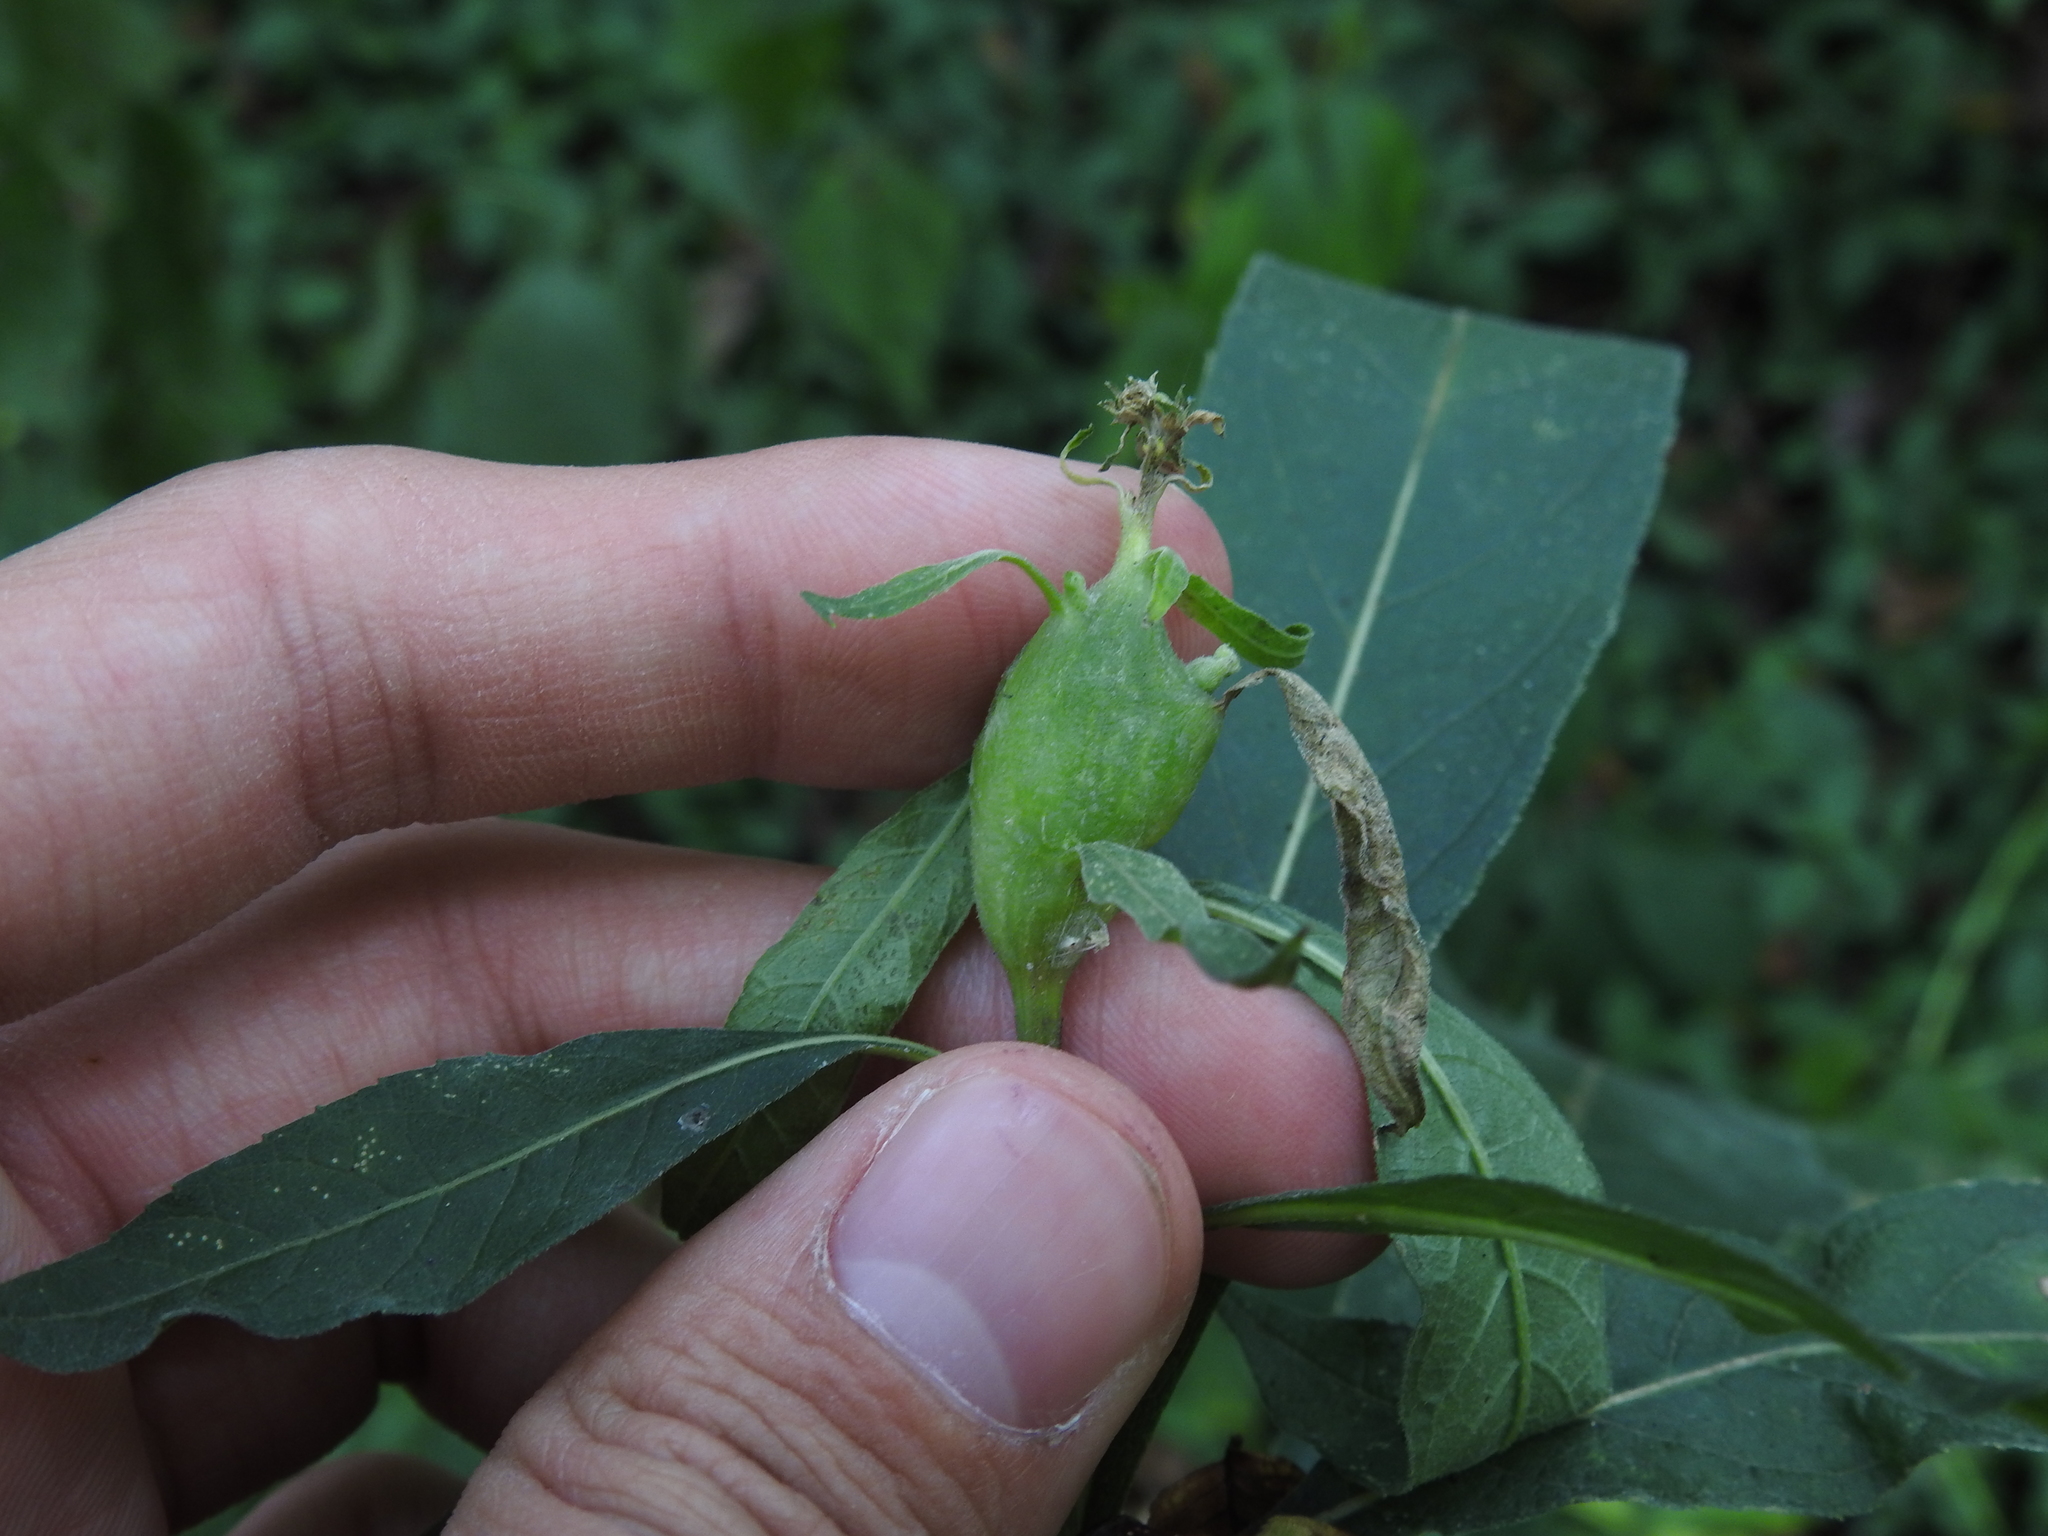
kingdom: Animalia
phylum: Arthropoda
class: Insecta
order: Diptera
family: Cecidomyiidae
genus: Neolasioptera
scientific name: Neolasioptera verbesinae
